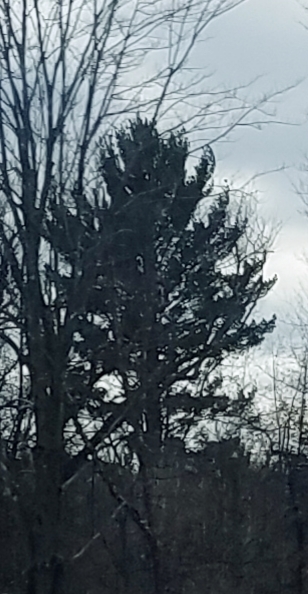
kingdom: Plantae
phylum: Tracheophyta
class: Pinopsida
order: Pinales
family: Pinaceae
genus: Pinus
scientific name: Pinus strobus
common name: Weymouth pine
